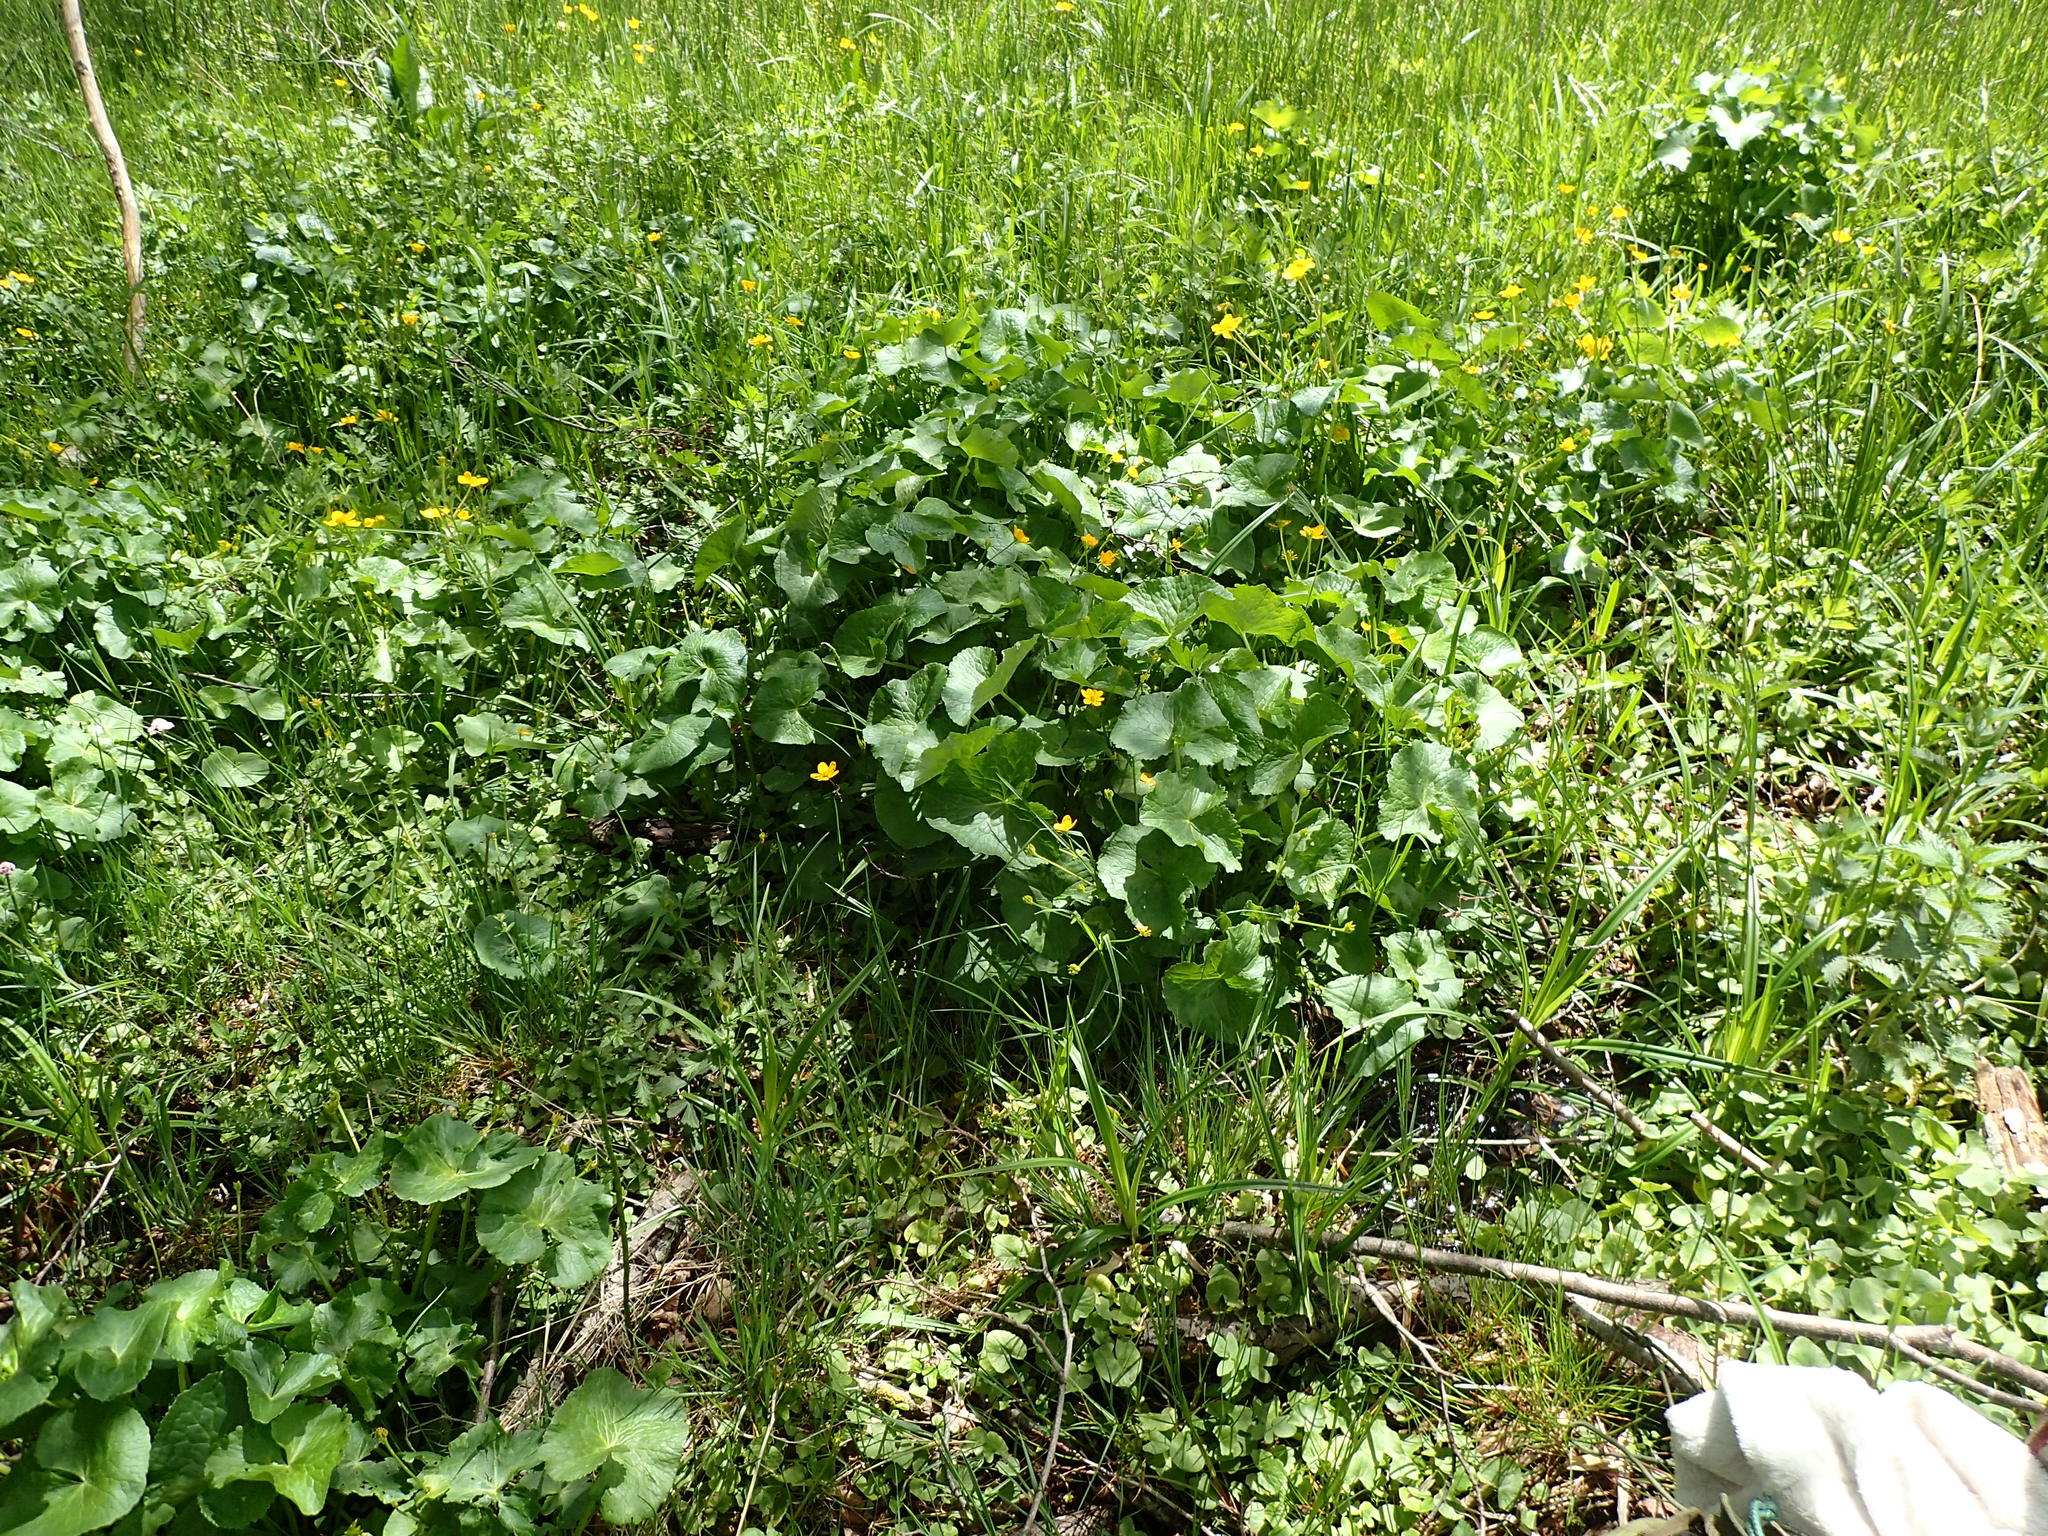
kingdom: Plantae
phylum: Tracheophyta
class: Magnoliopsida
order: Ranunculales
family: Ranunculaceae
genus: Caltha
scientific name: Caltha palustris
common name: Marsh marigold
